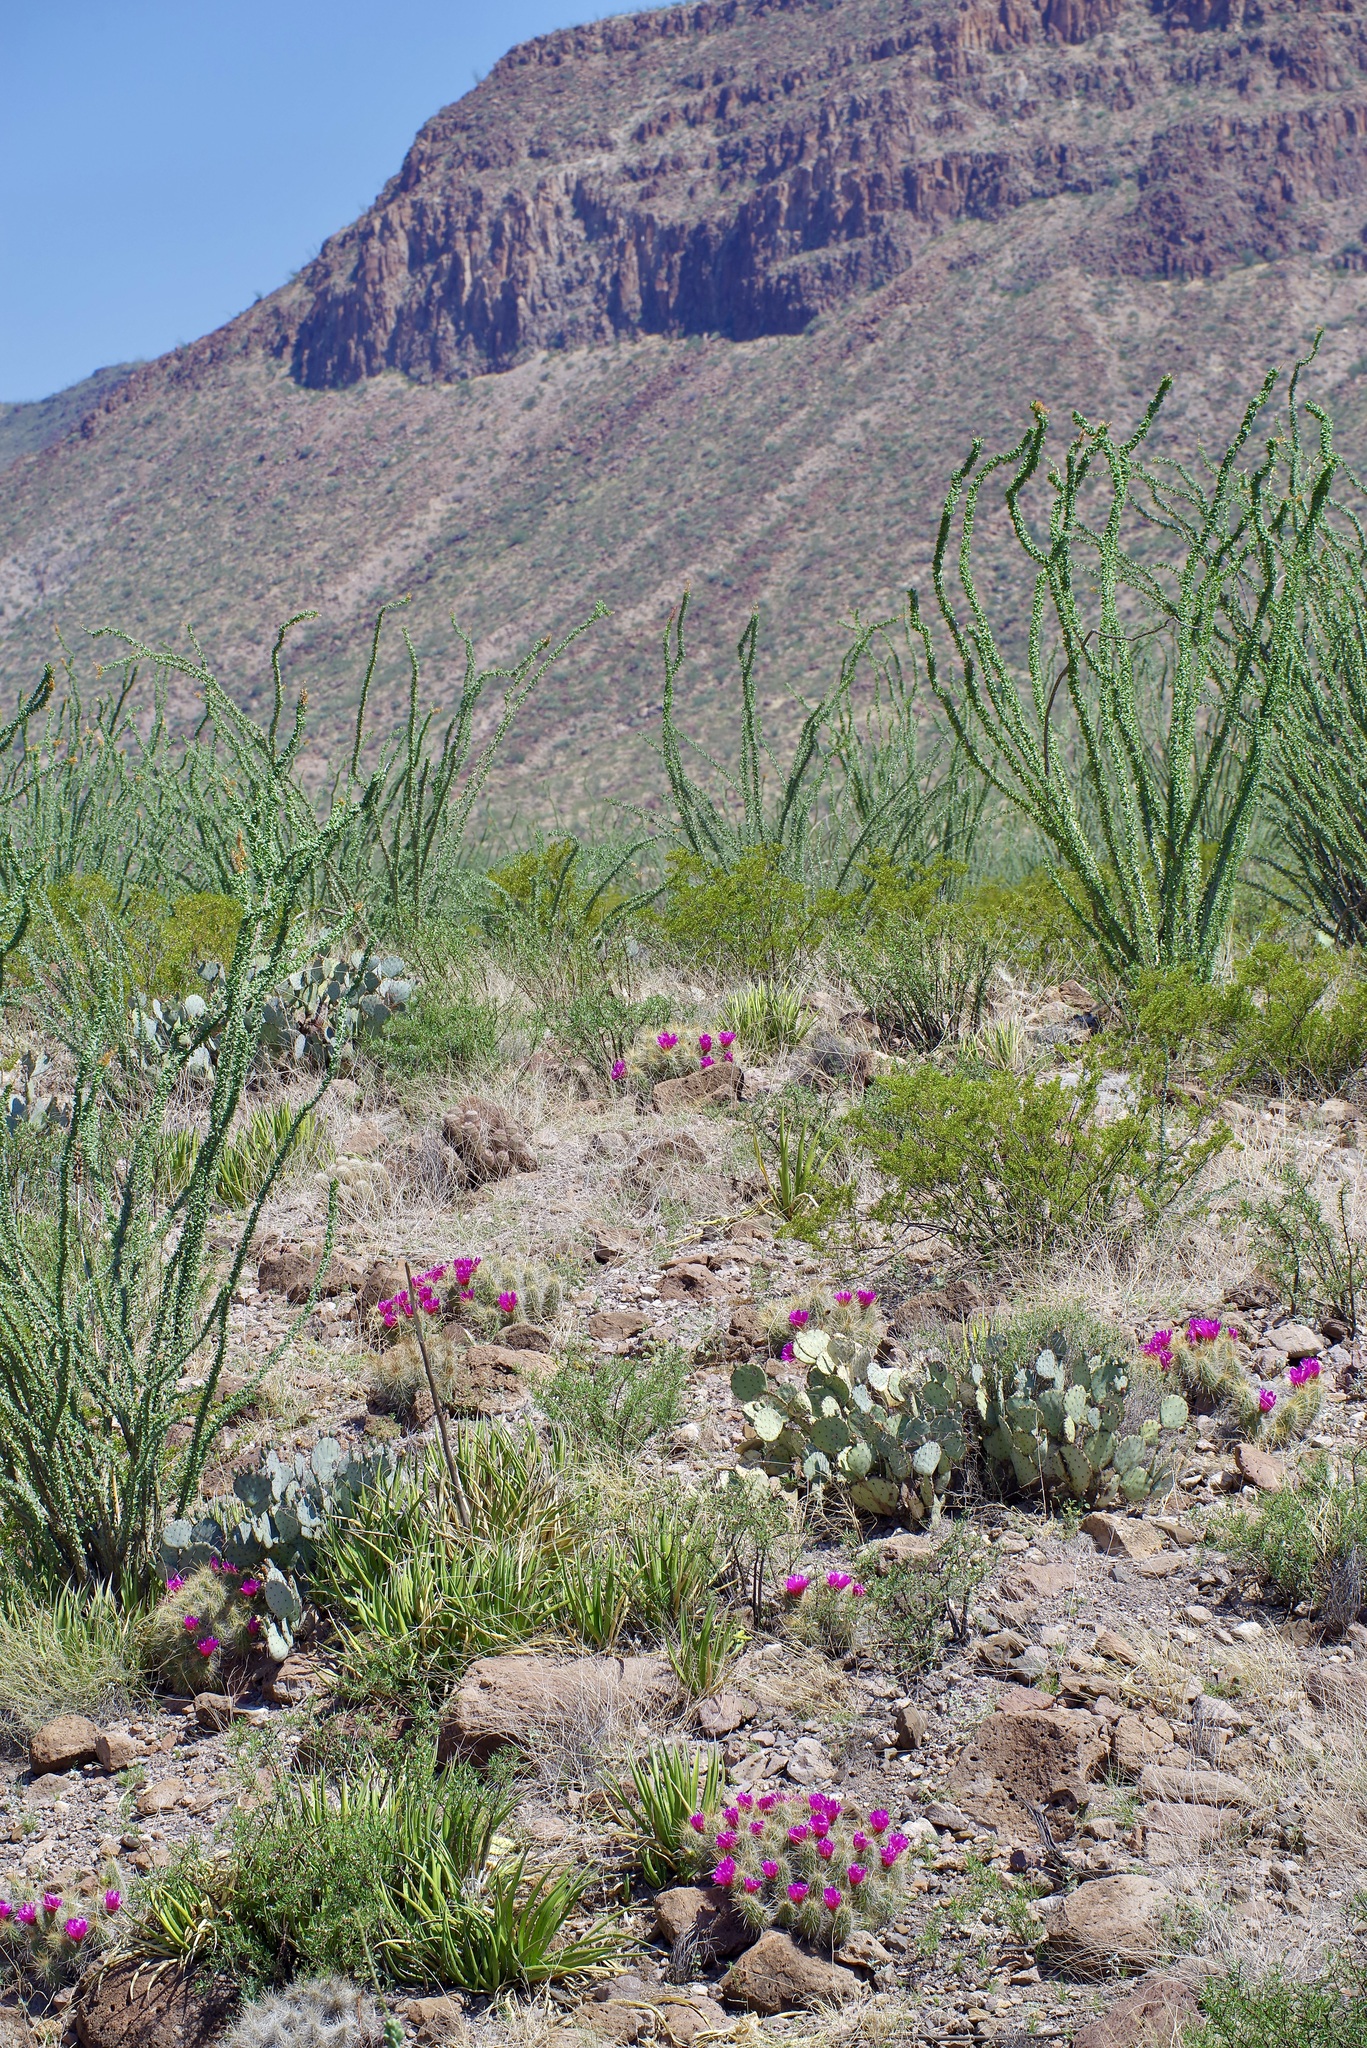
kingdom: Plantae
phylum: Tracheophyta
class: Magnoliopsida
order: Caryophyllales
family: Cactaceae
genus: Echinocereus
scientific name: Echinocereus stramineus
